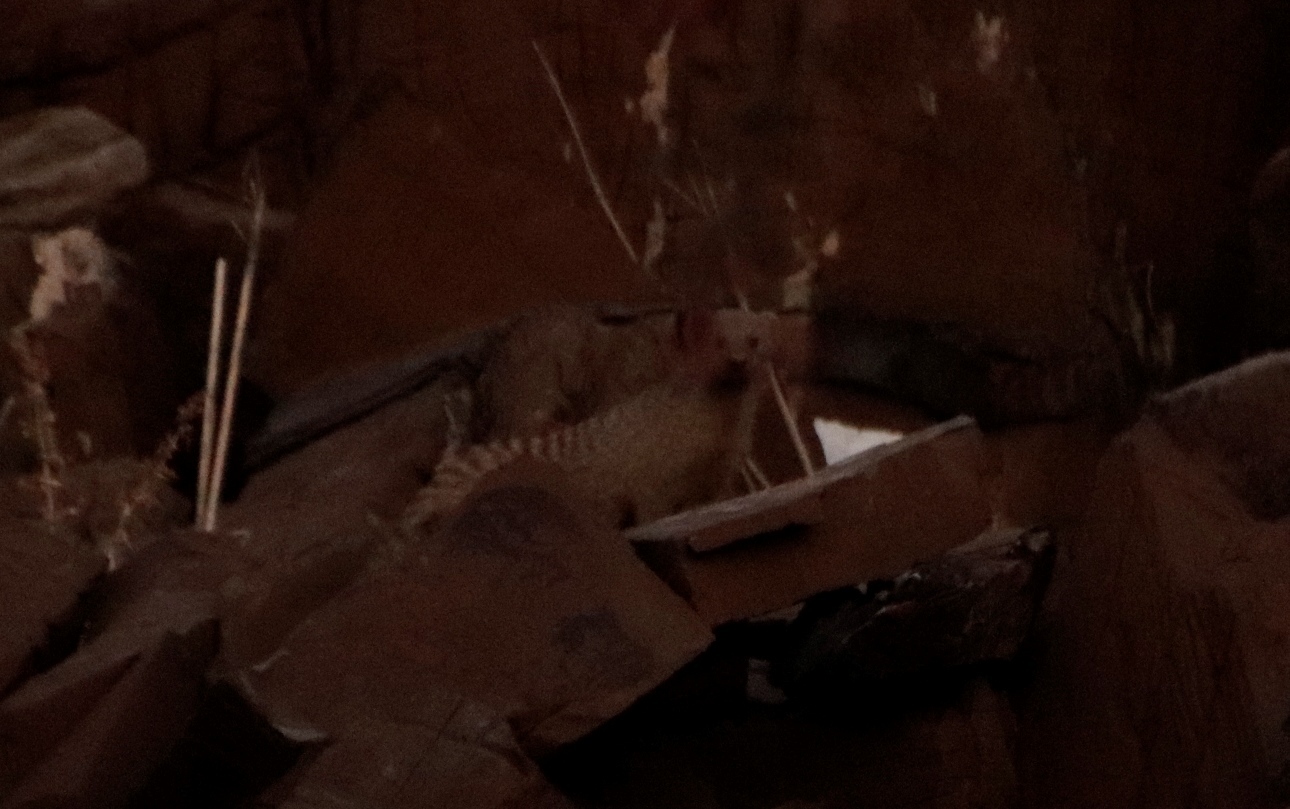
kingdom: Animalia
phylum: Chordata
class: Mammalia
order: Carnivora
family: Herpestidae
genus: Mungos
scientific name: Mungos mungo
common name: Banded mongoose
